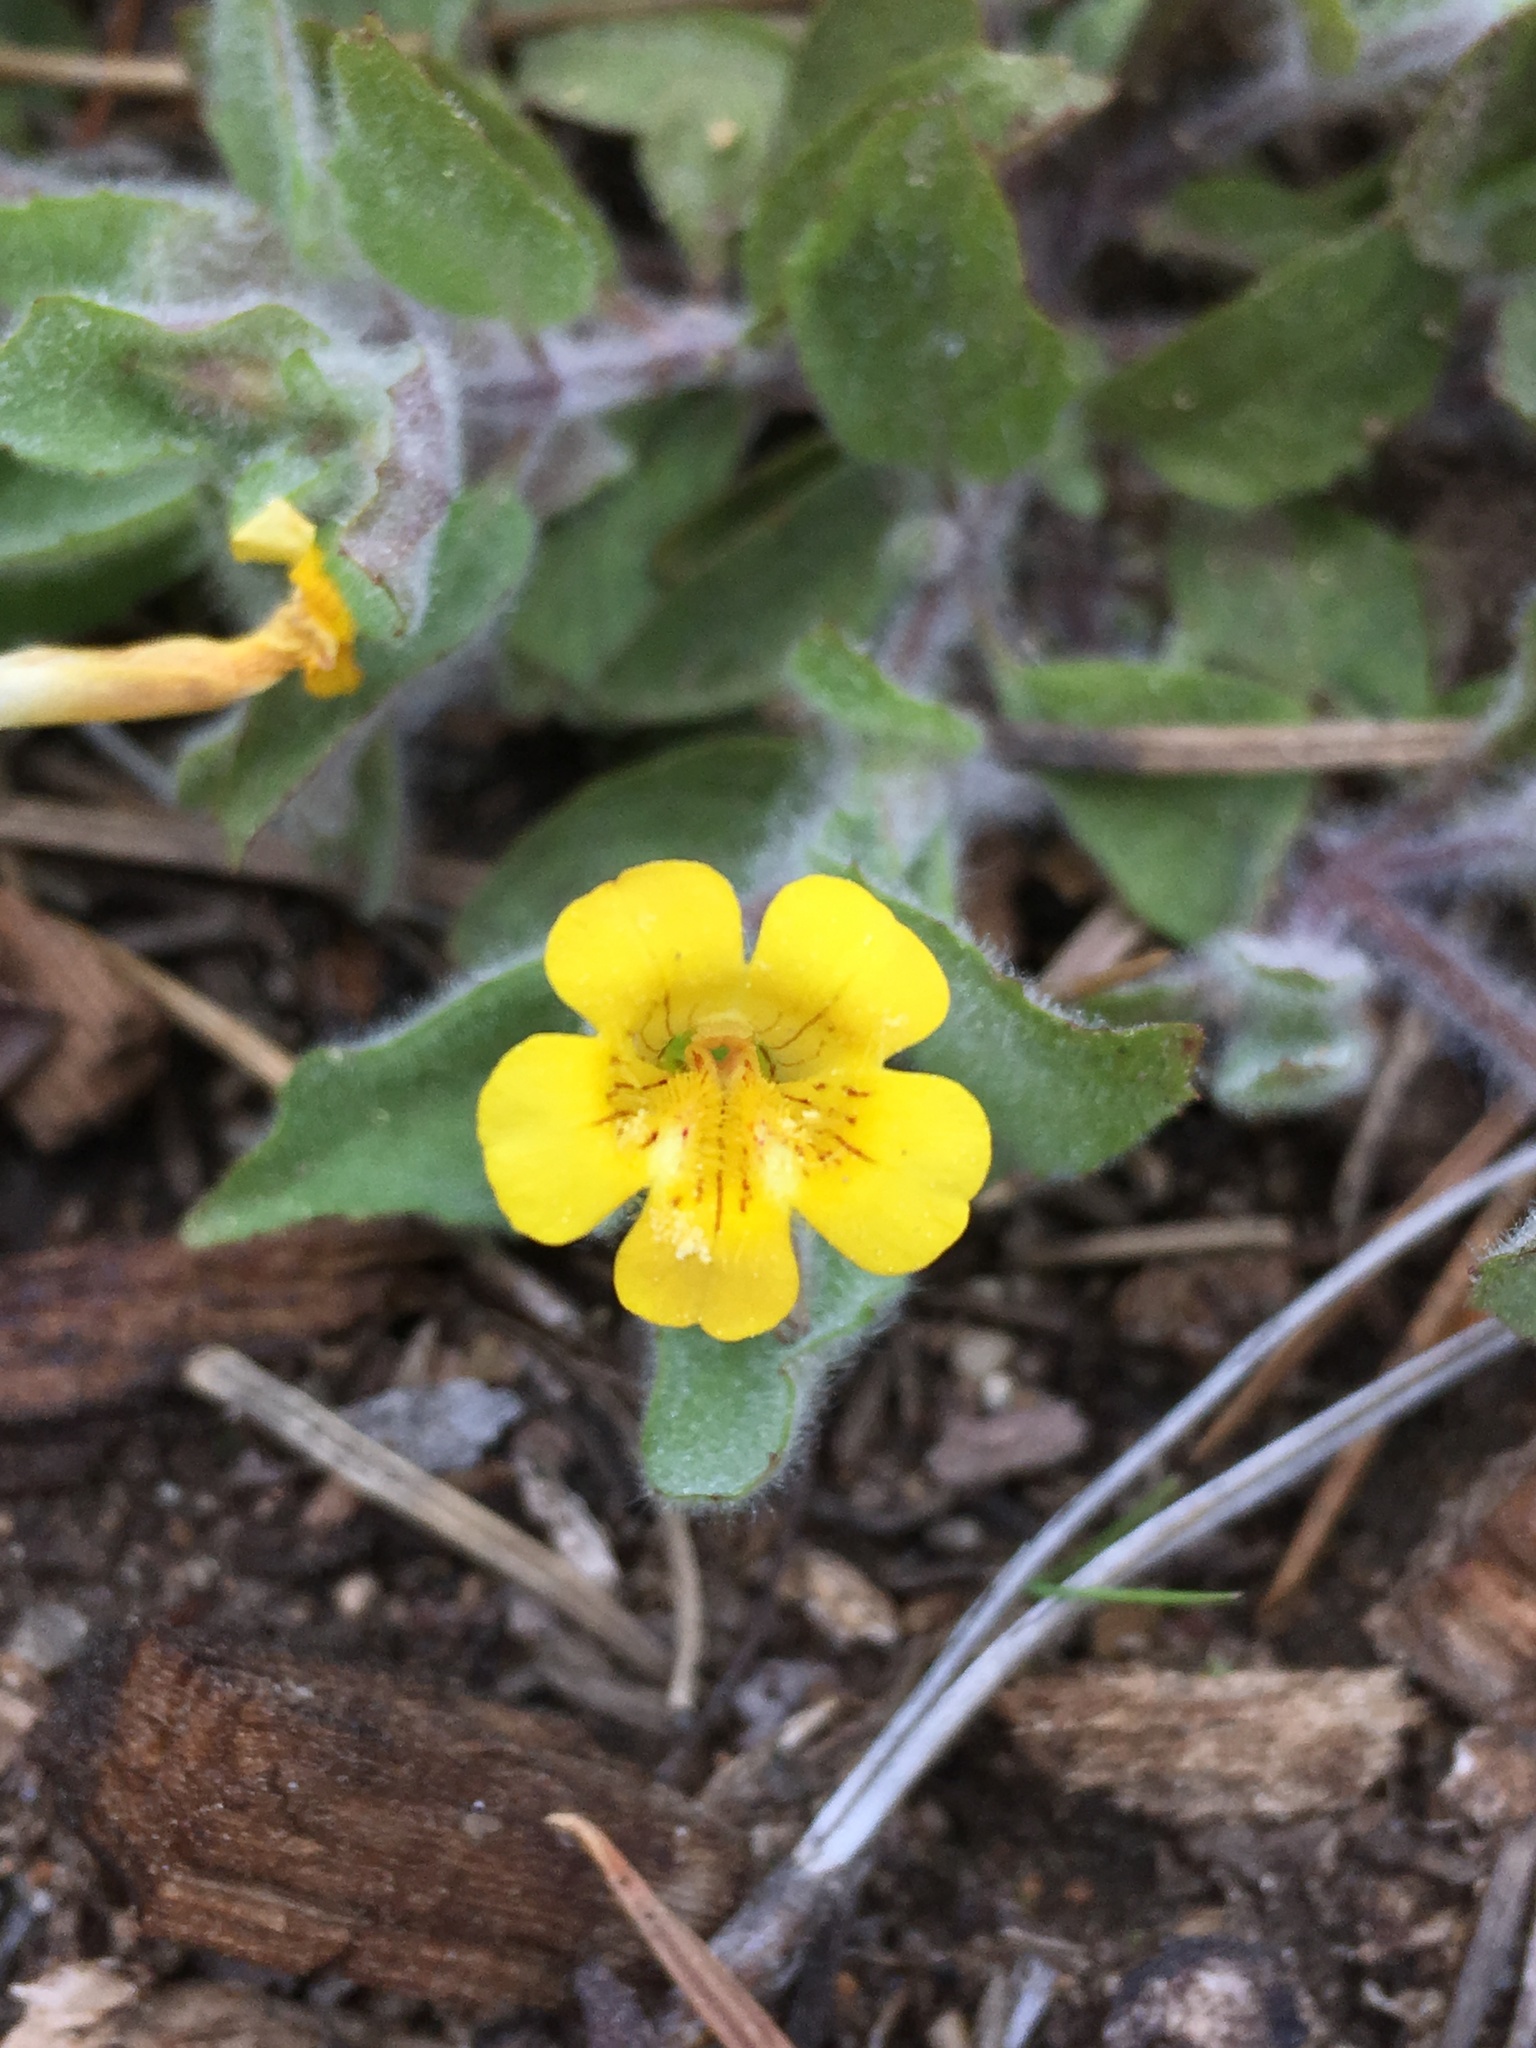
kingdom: Plantae
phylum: Tracheophyta
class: Magnoliopsida
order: Lamiales
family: Phrymaceae
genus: Erythranthe
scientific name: Erythranthe moschata
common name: Muskflower
